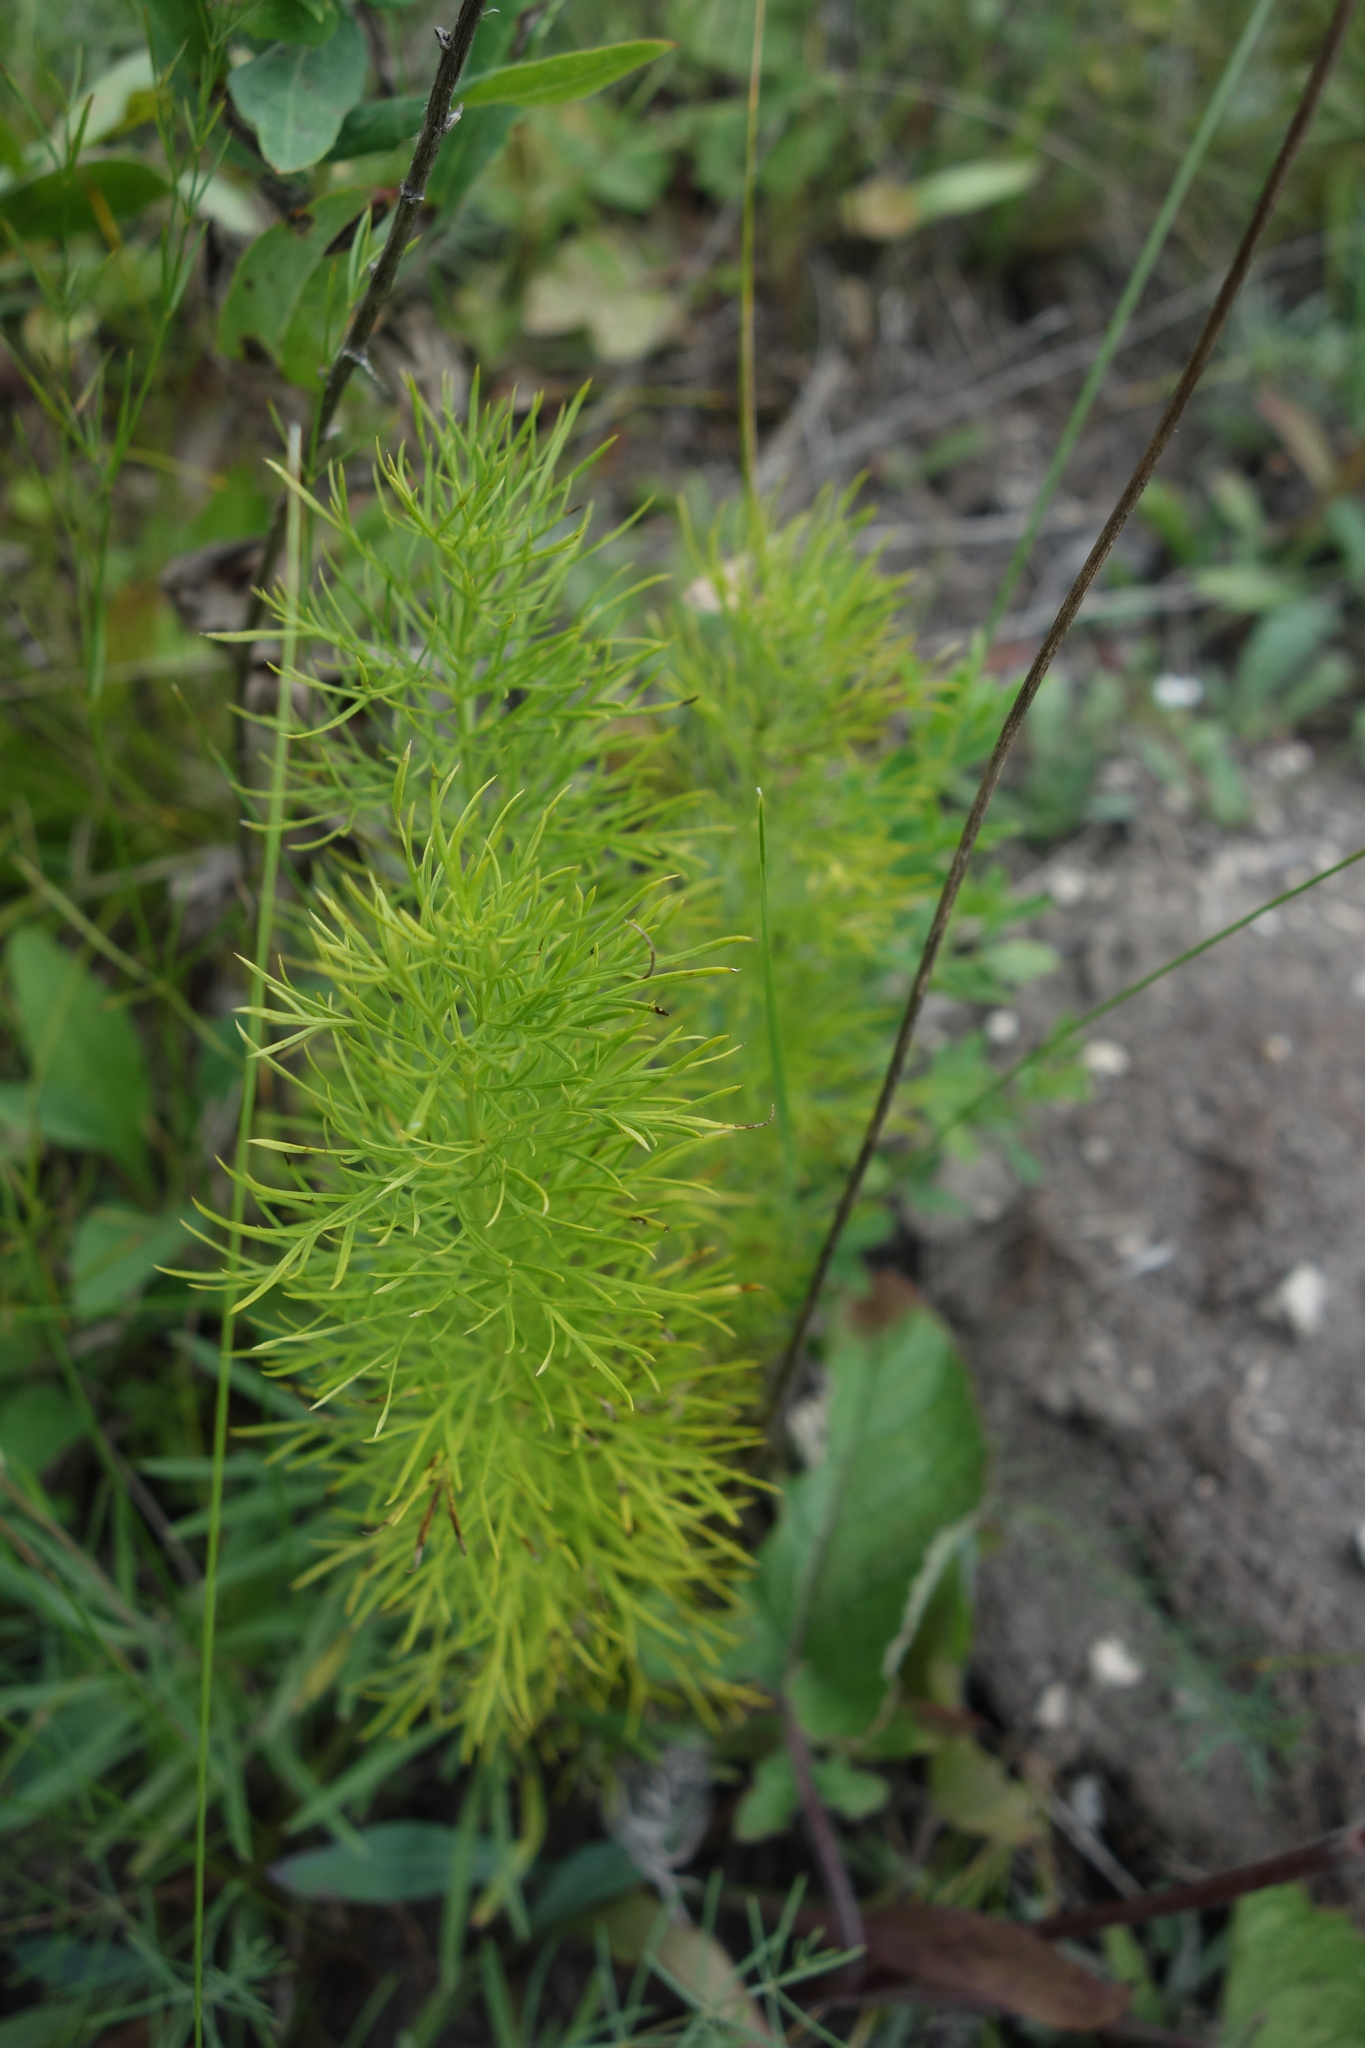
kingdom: Plantae
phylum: Tracheophyta
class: Magnoliopsida
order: Ranunculales
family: Ranunculaceae
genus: Adonis
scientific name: Adonis vernalis
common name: Yellow pheasants-eye
